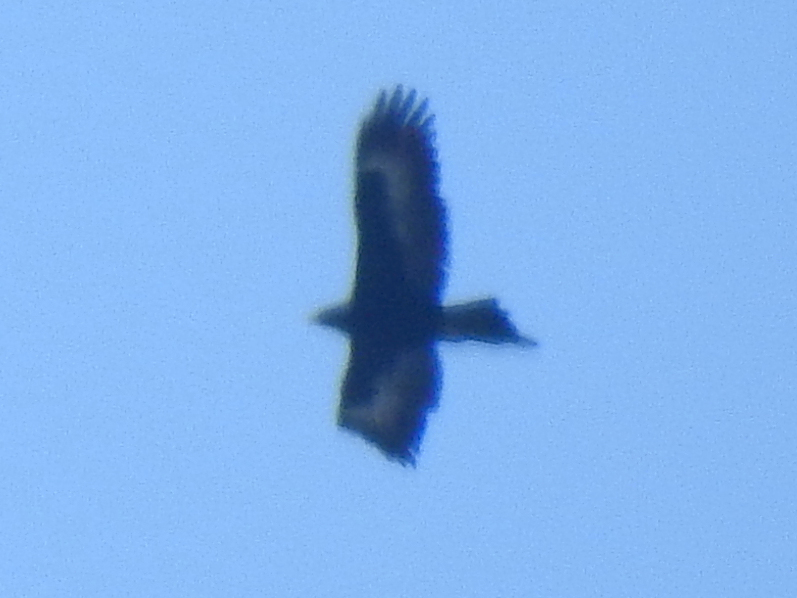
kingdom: Animalia
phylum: Chordata
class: Aves
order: Accipitriformes
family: Accipitridae
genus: Aquila
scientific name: Aquila audax
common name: Wedge-tailed eagle
